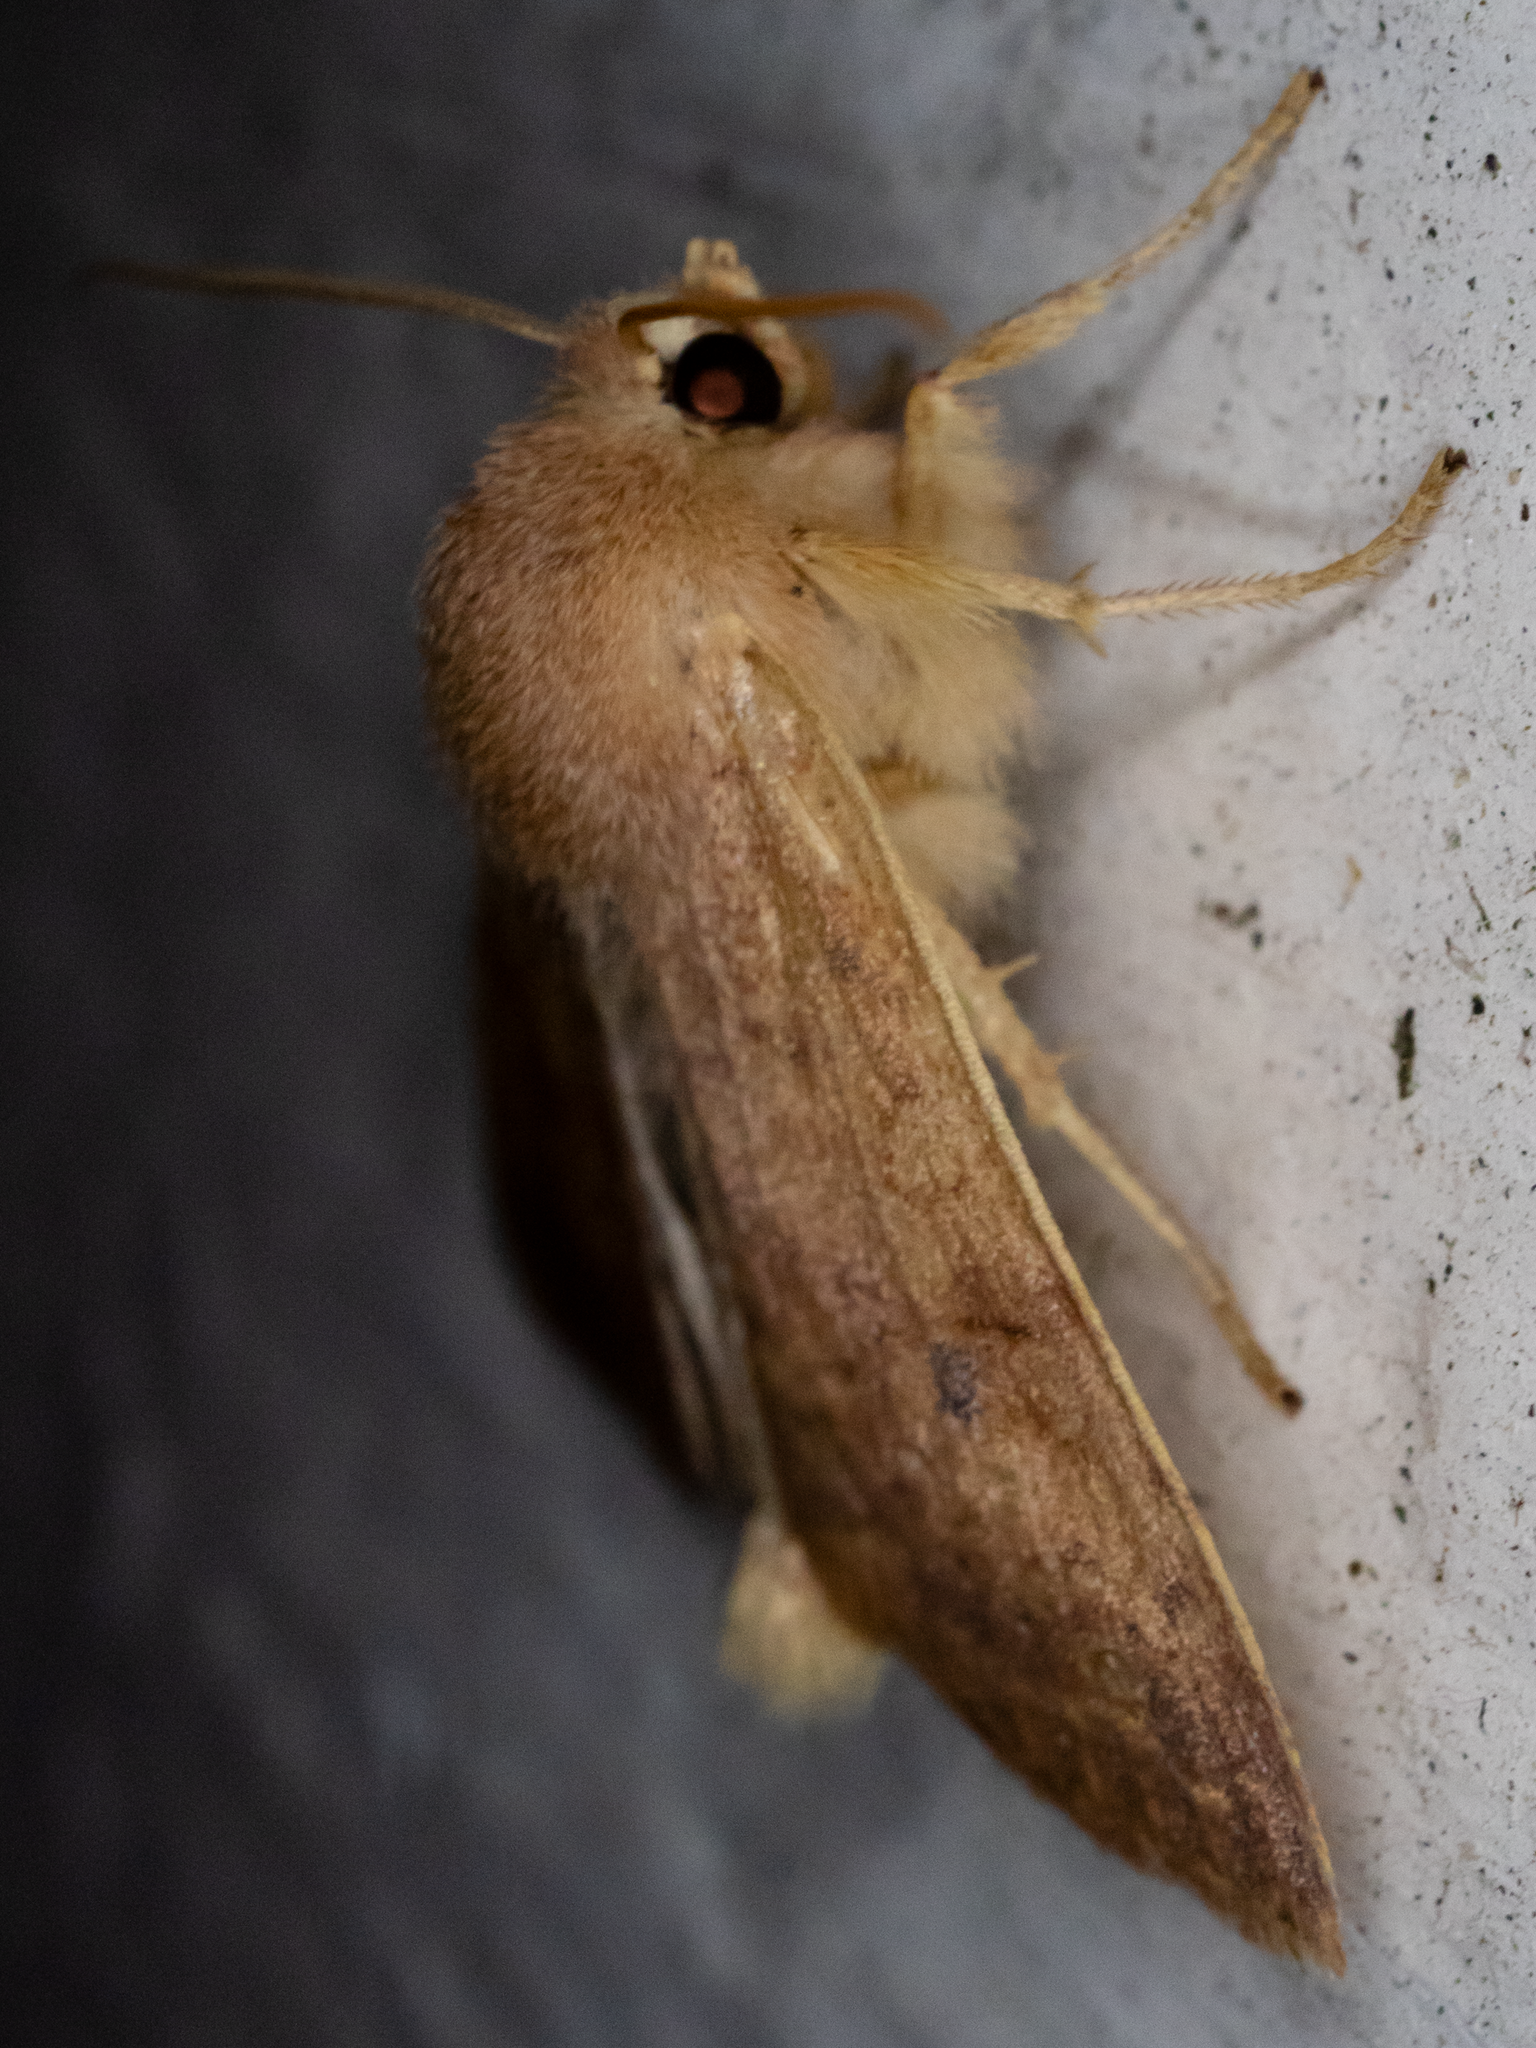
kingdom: Animalia
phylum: Arthropoda
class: Insecta
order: Lepidoptera
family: Noctuidae
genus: Agrochola
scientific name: Agrochola bicolorago
